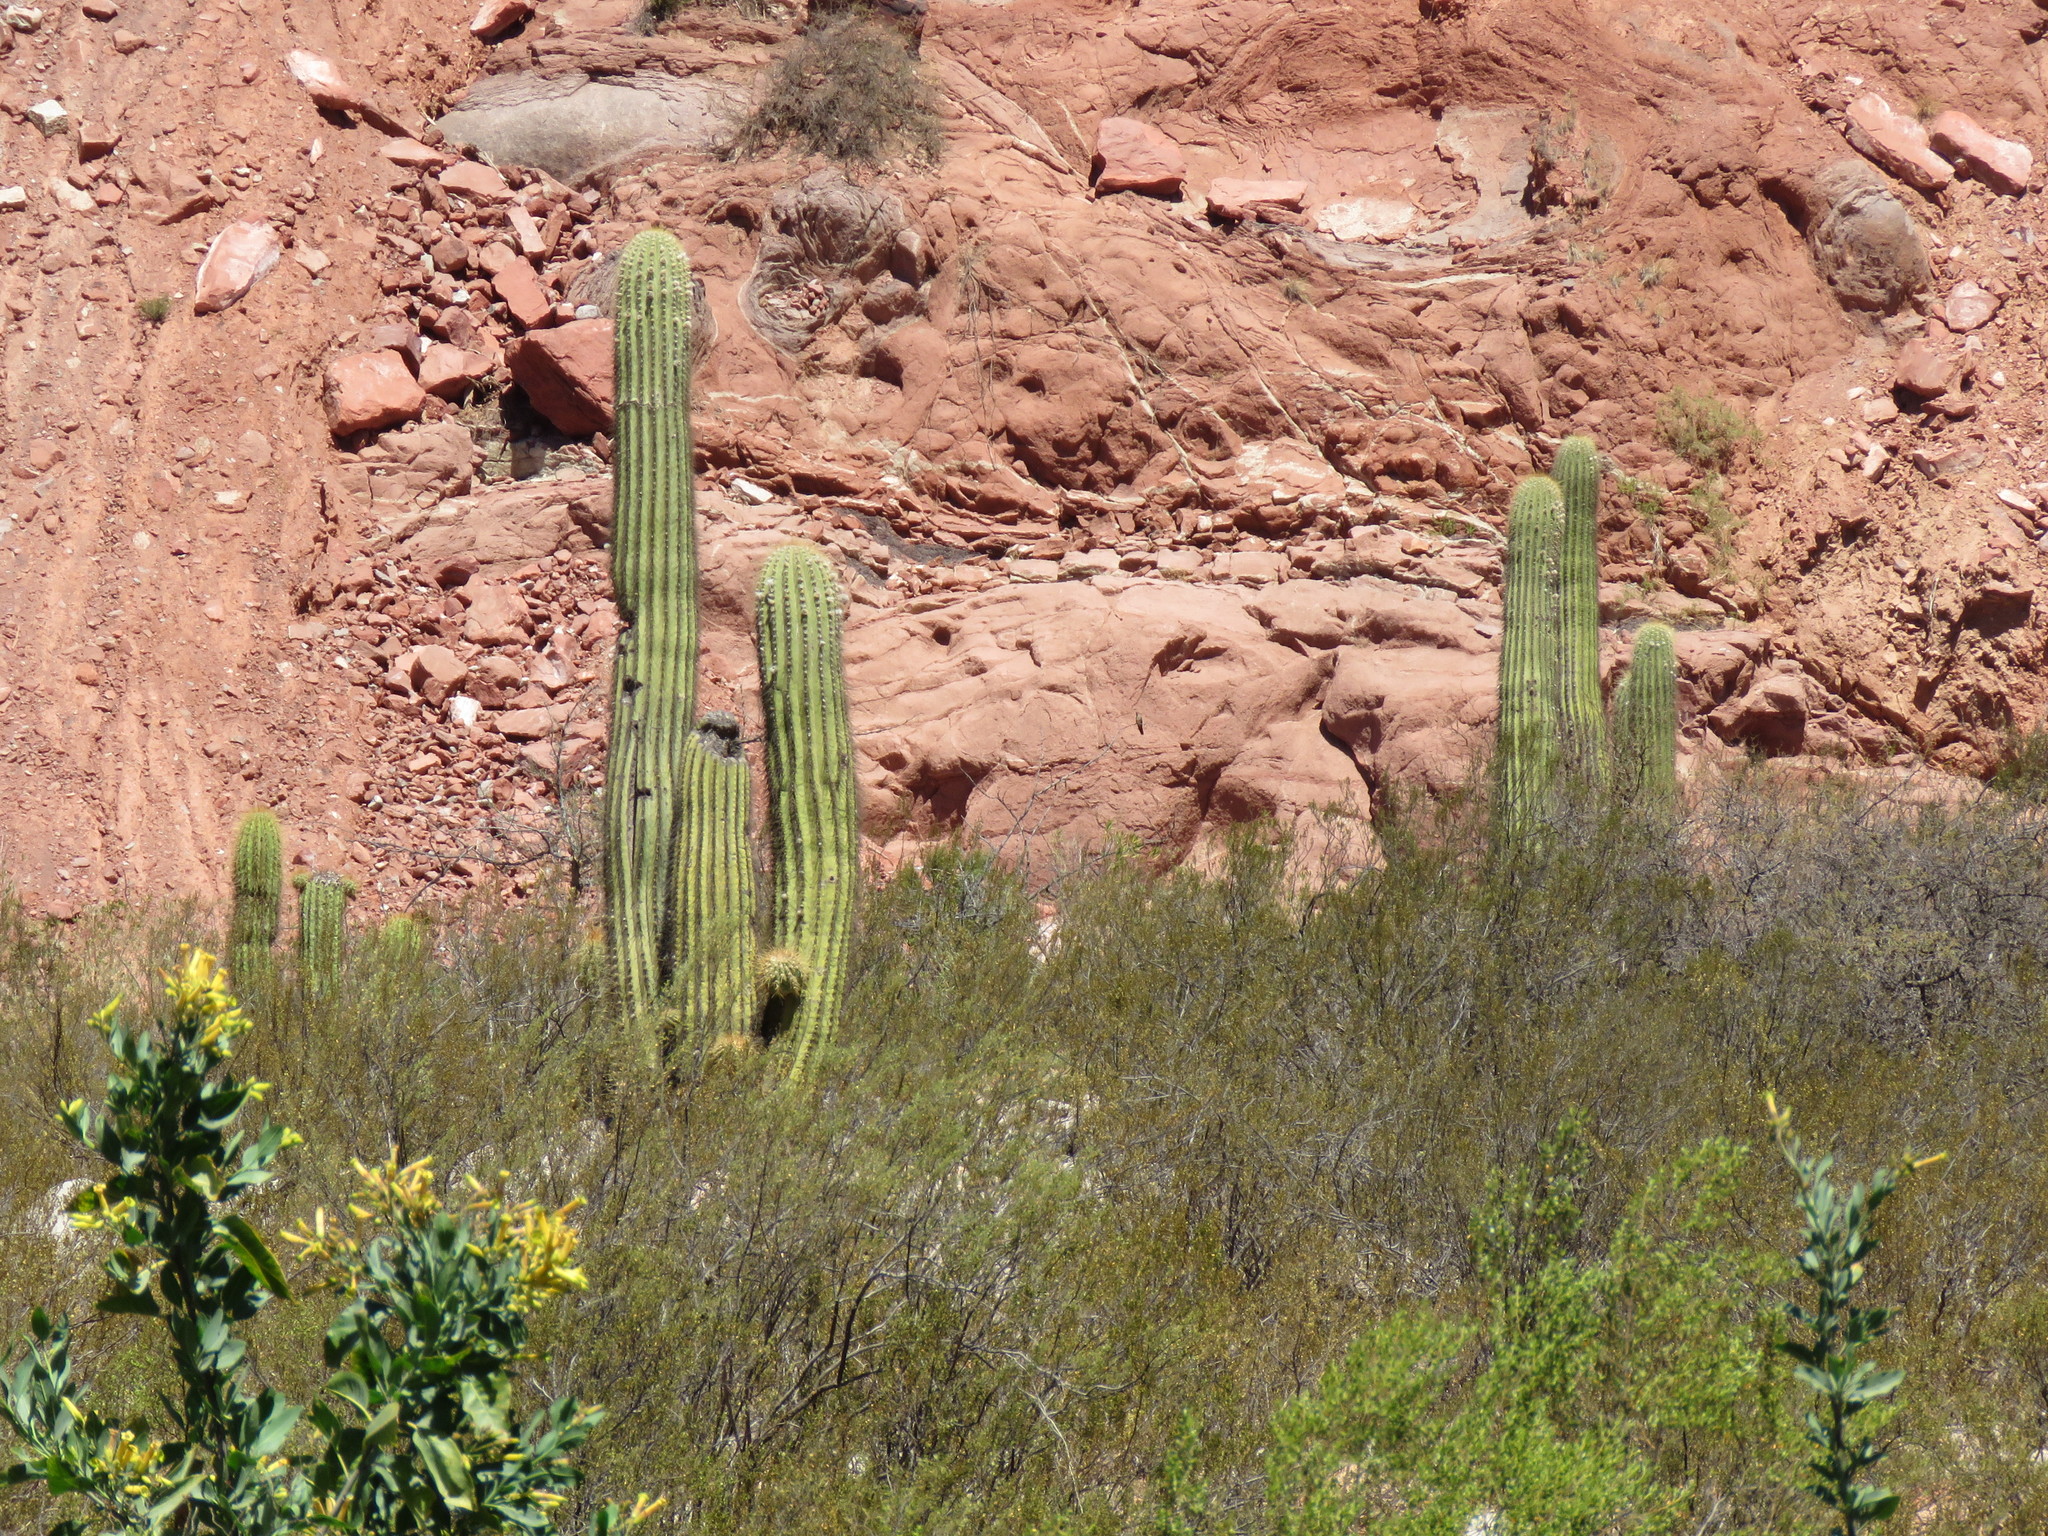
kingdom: Plantae
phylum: Tracheophyta
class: Magnoliopsida
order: Caryophyllales
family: Cactaceae
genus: Leucostele
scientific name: Leucostele terscheckii
